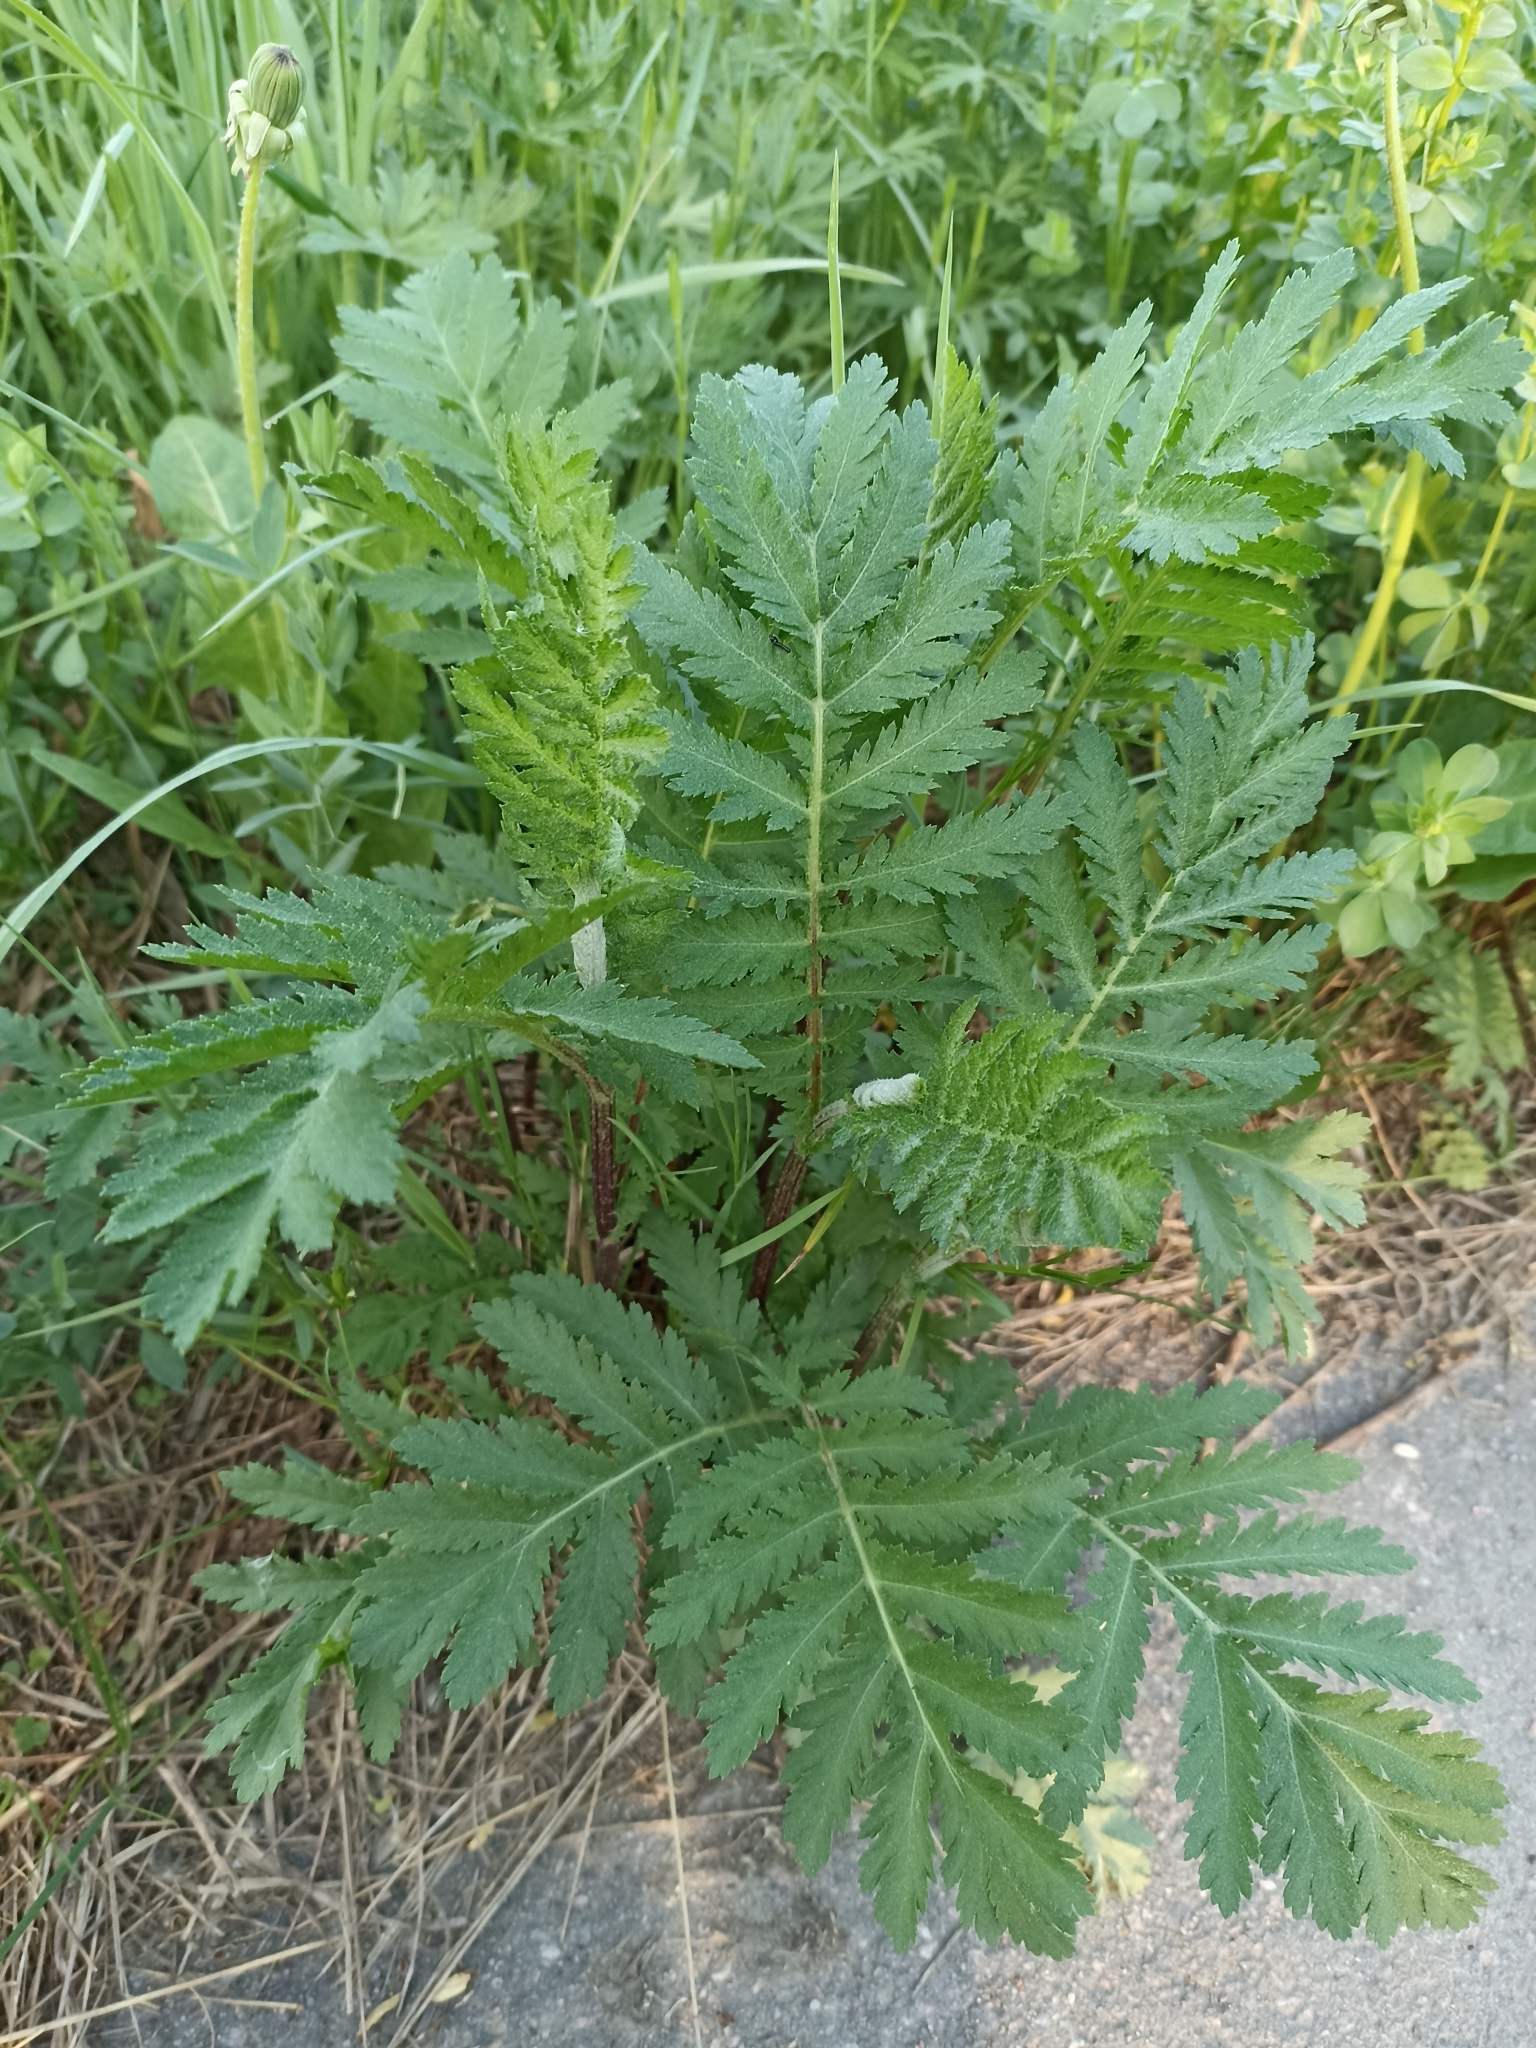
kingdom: Plantae
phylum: Tracheophyta
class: Magnoliopsida
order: Asterales
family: Asteraceae
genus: Tanacetum
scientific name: Tanacetum vulgare
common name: Common tansy
